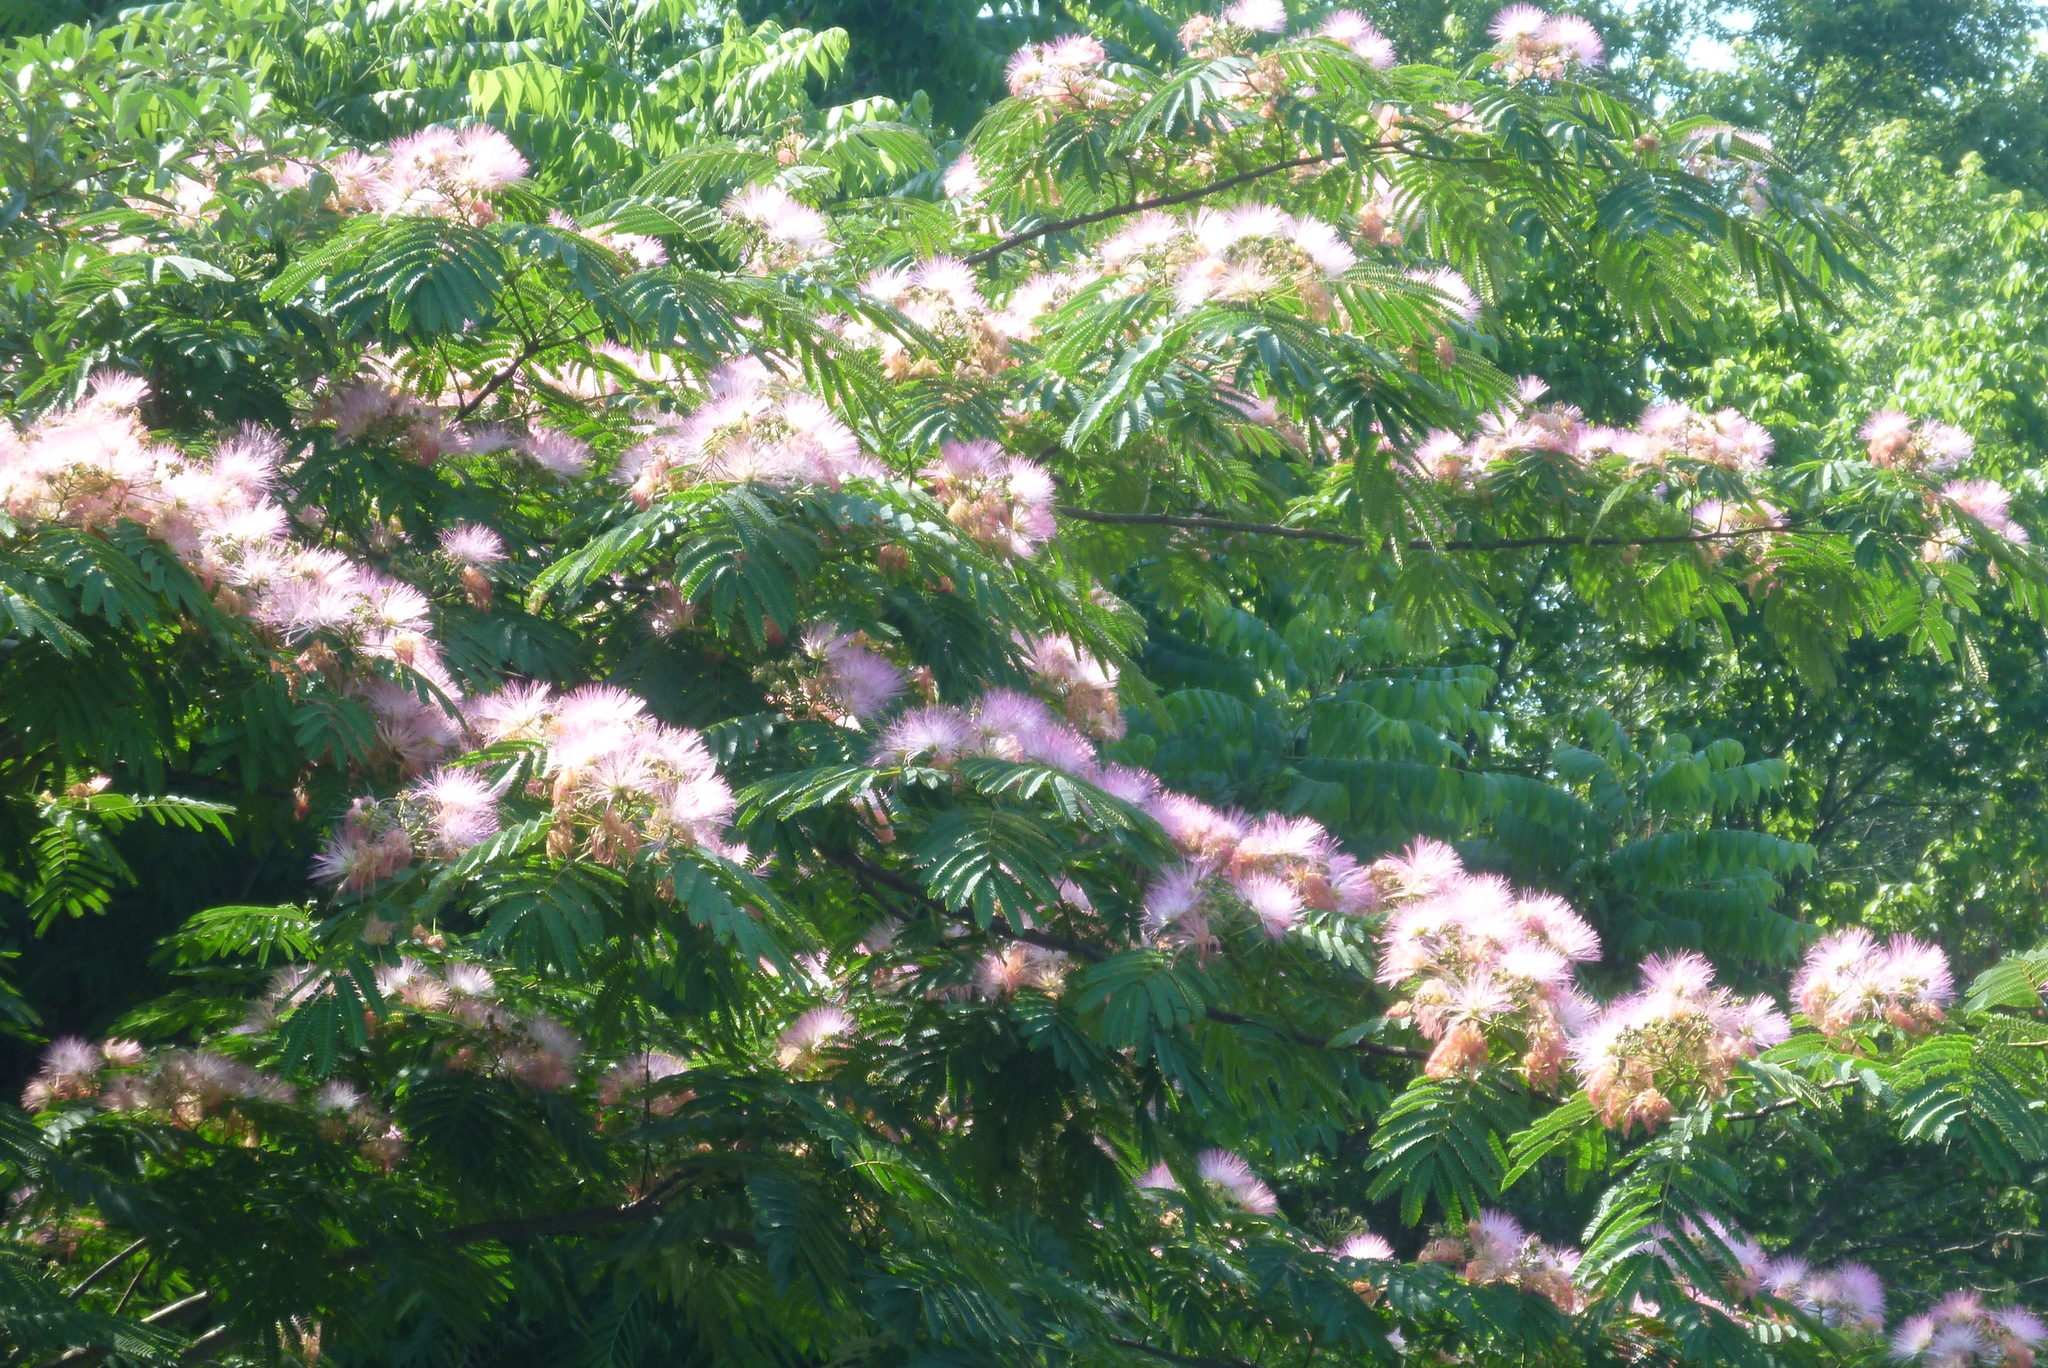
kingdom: Plantae
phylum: Tracheophyta
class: Magnoliopsida
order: Fabales
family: Fabaceae
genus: Albizia
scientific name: Albizia julibrissin
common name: Silktree
